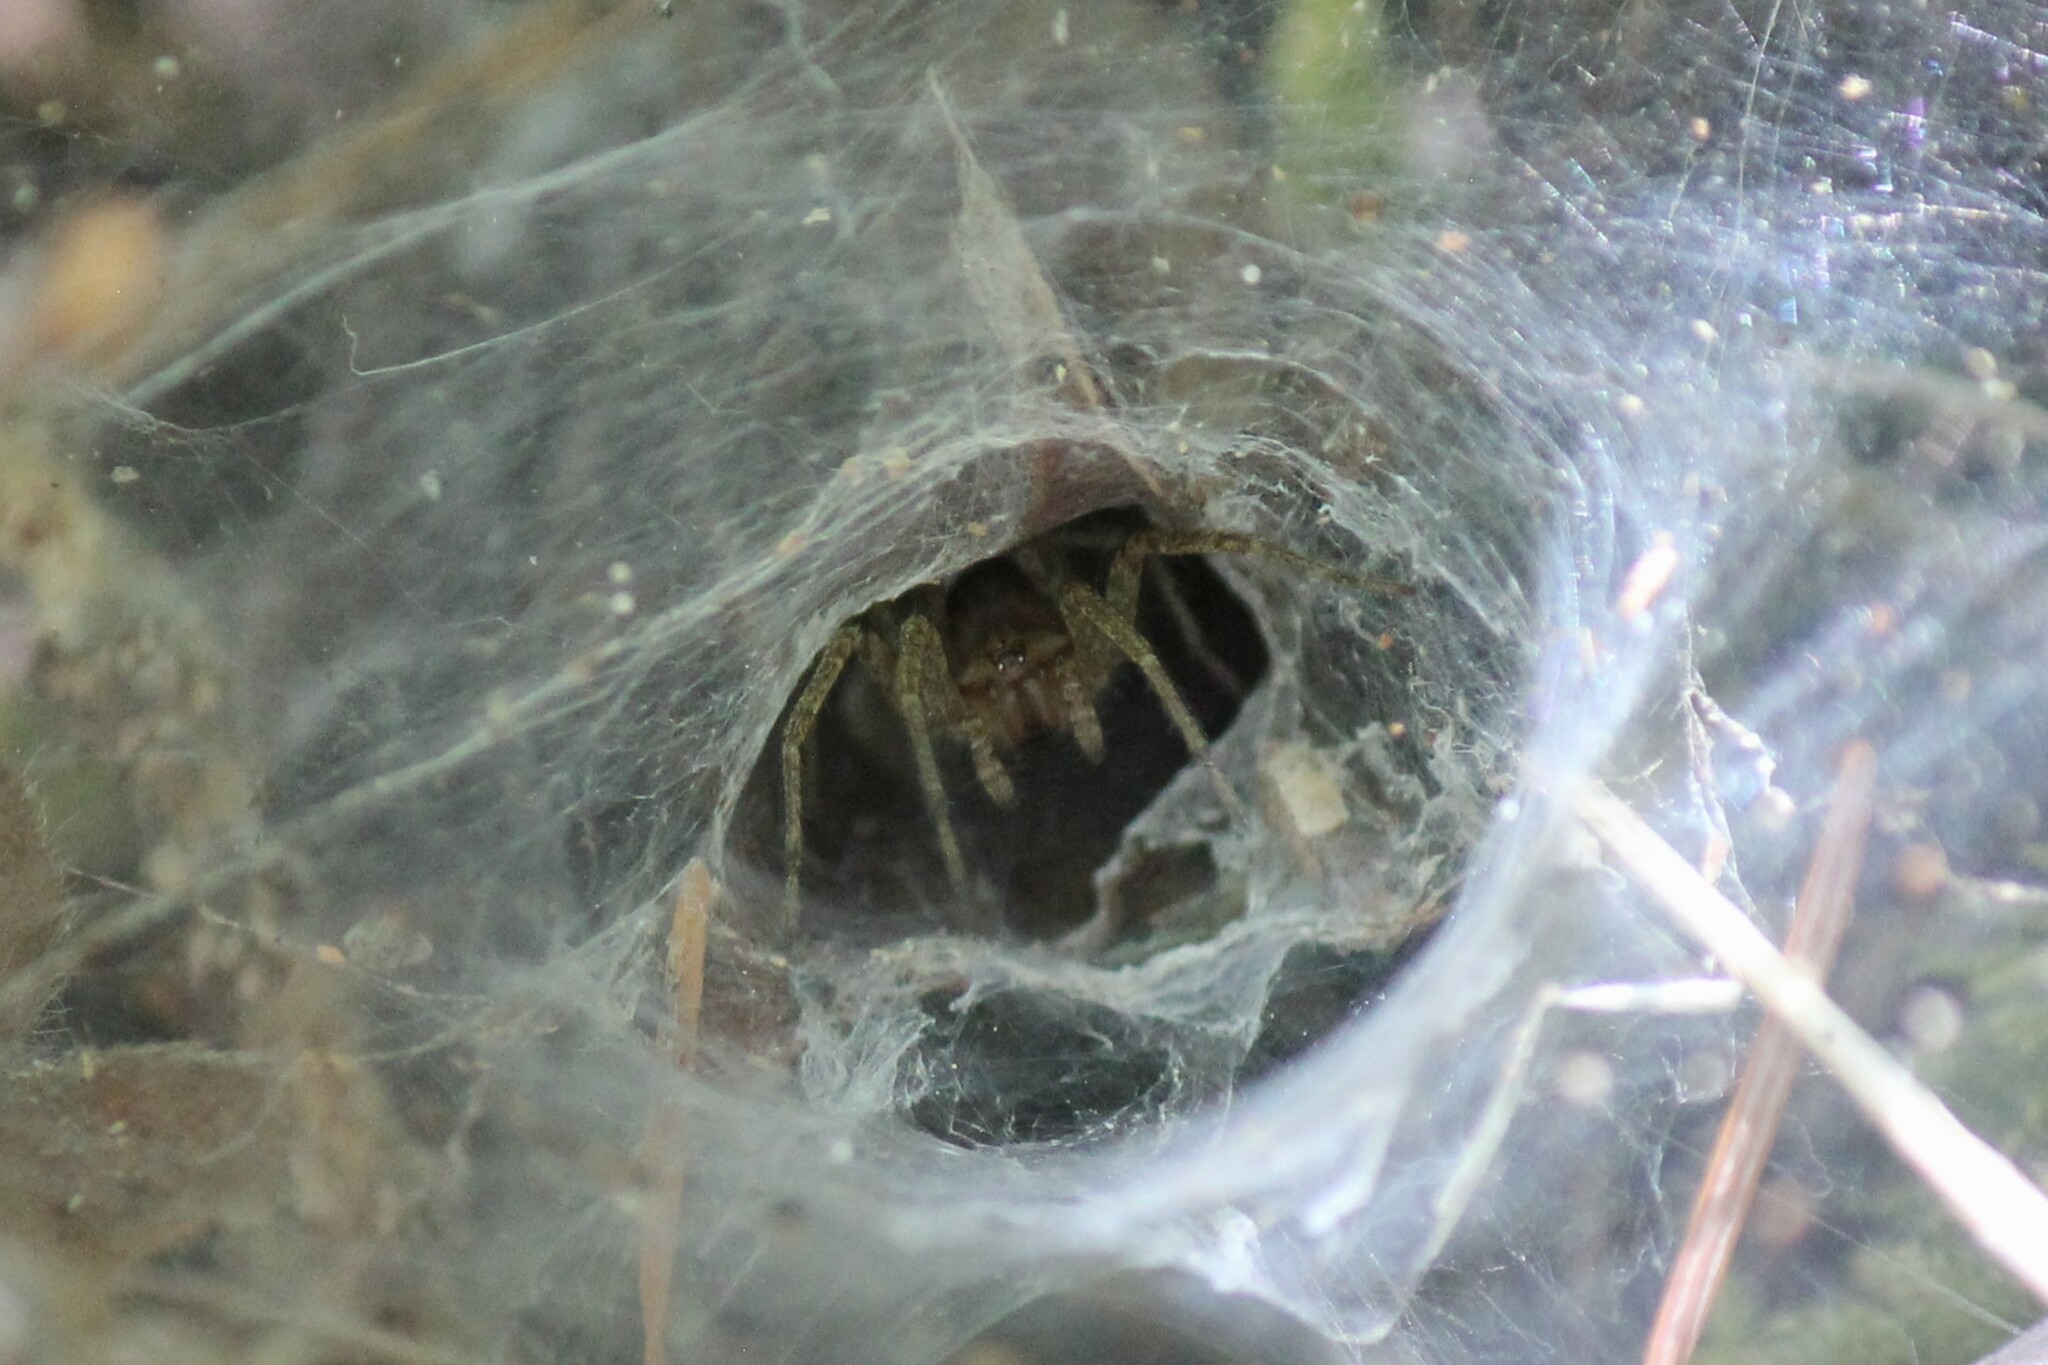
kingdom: Animalia
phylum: Arthropoda
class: Arachnida
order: Araneae
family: Agelenidae
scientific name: Agelenidae
